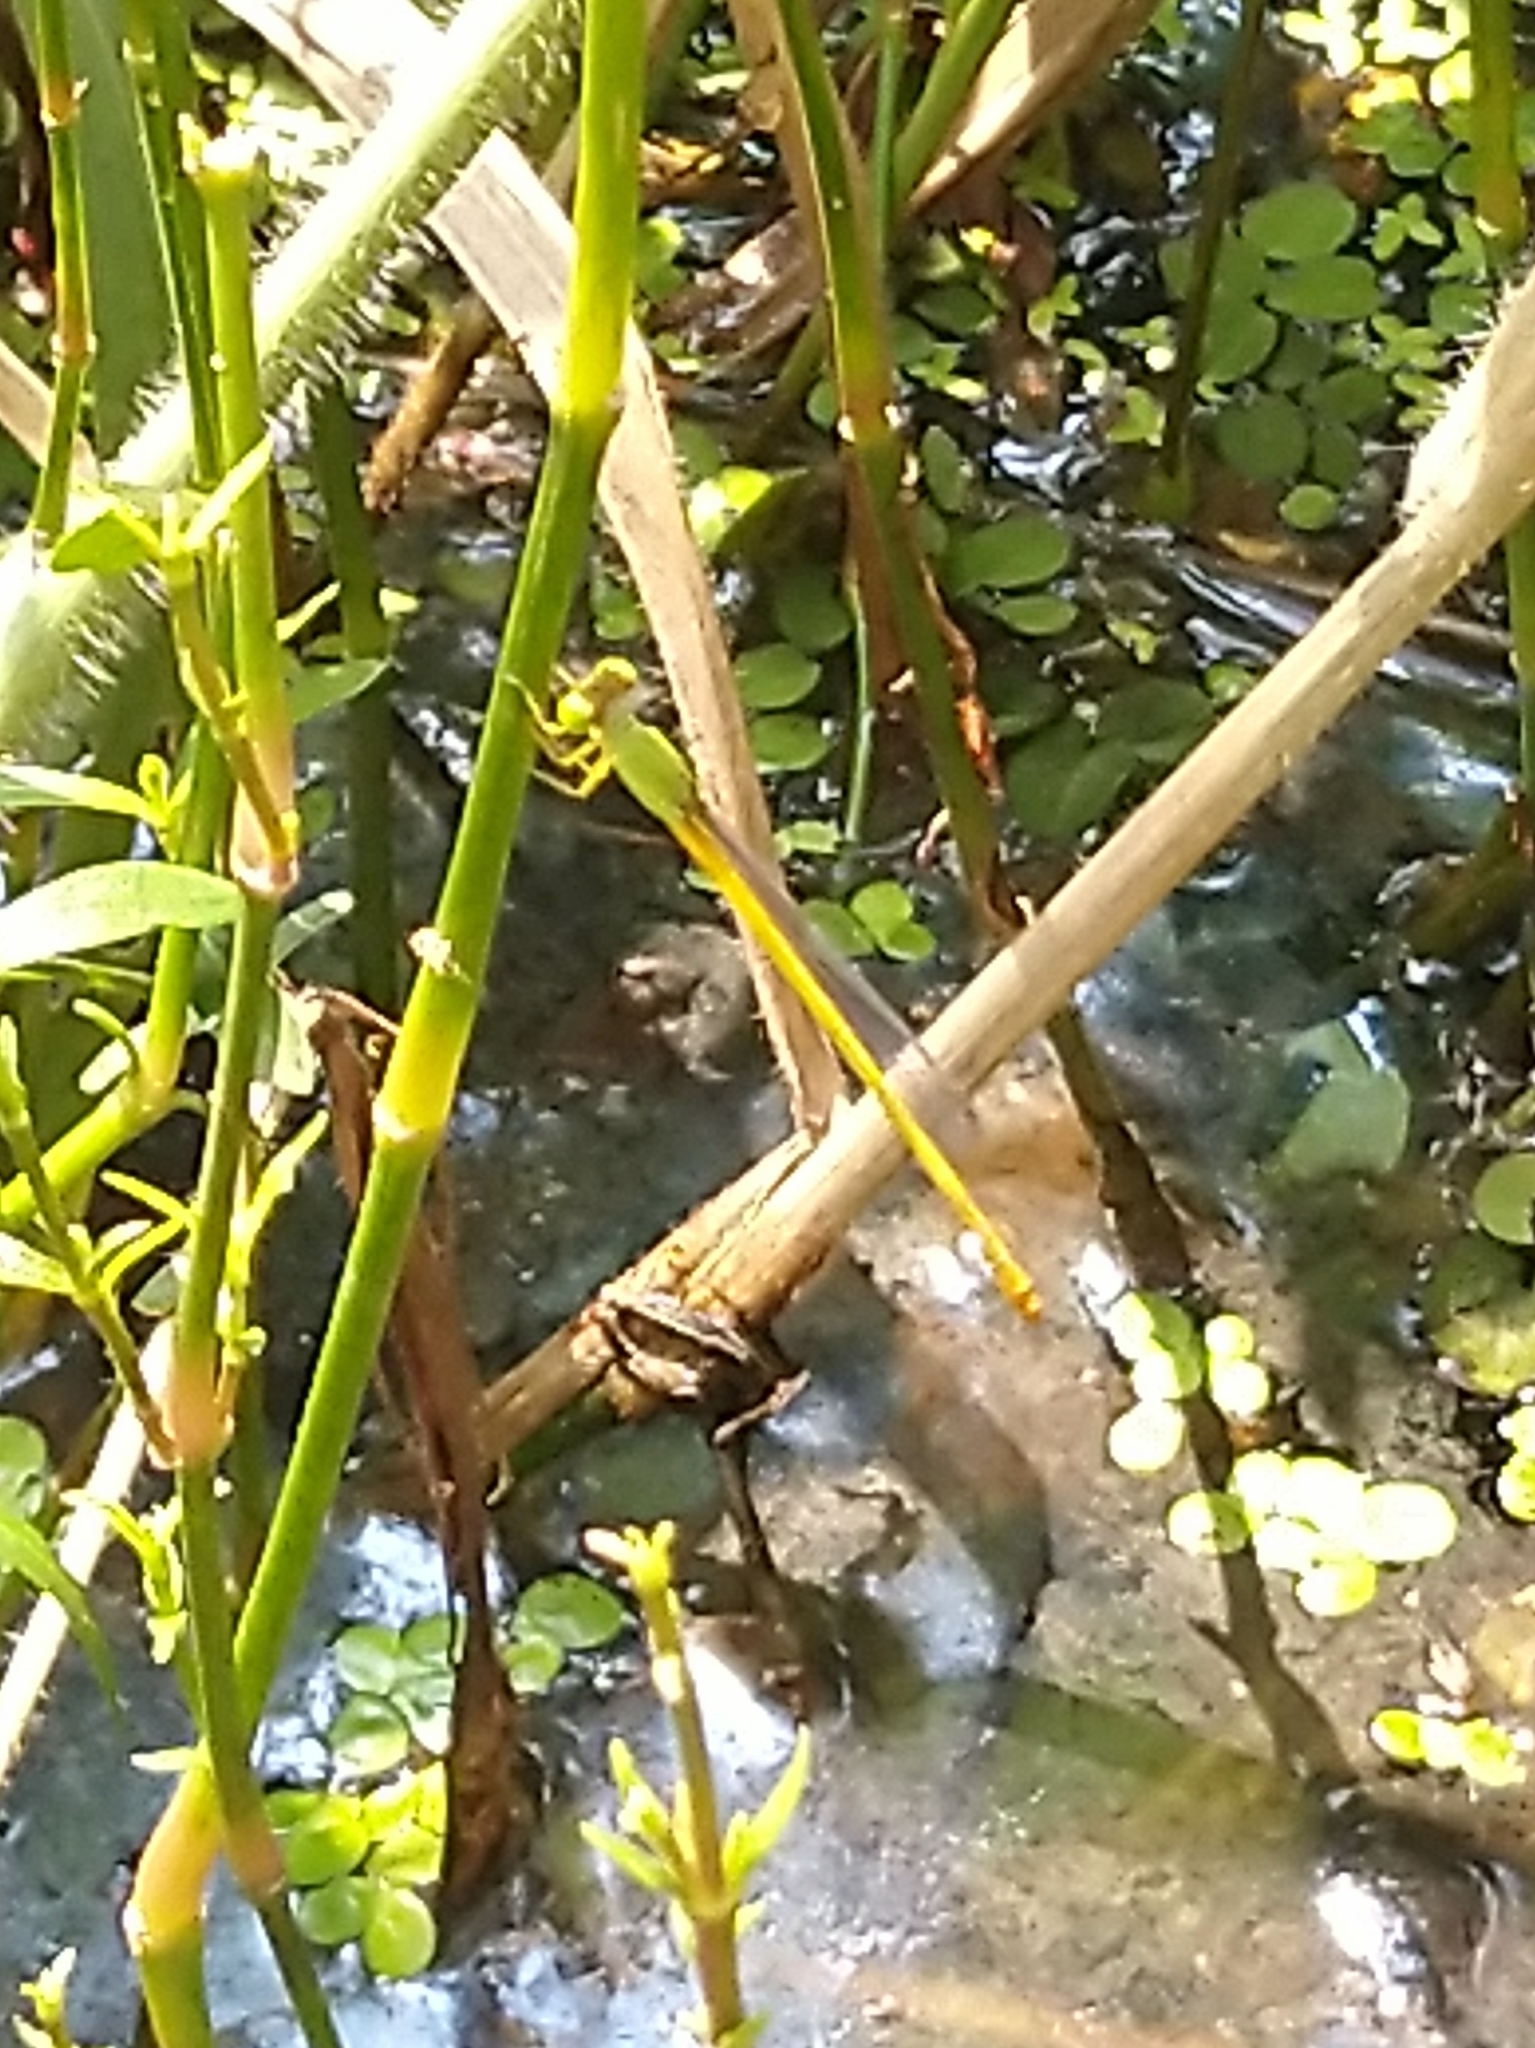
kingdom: Animalia
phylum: Arthropoda
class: Insecta
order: Odonata
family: Coenagrionidae
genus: Ceriagrion
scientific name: Ceriagrion coromandelianum
